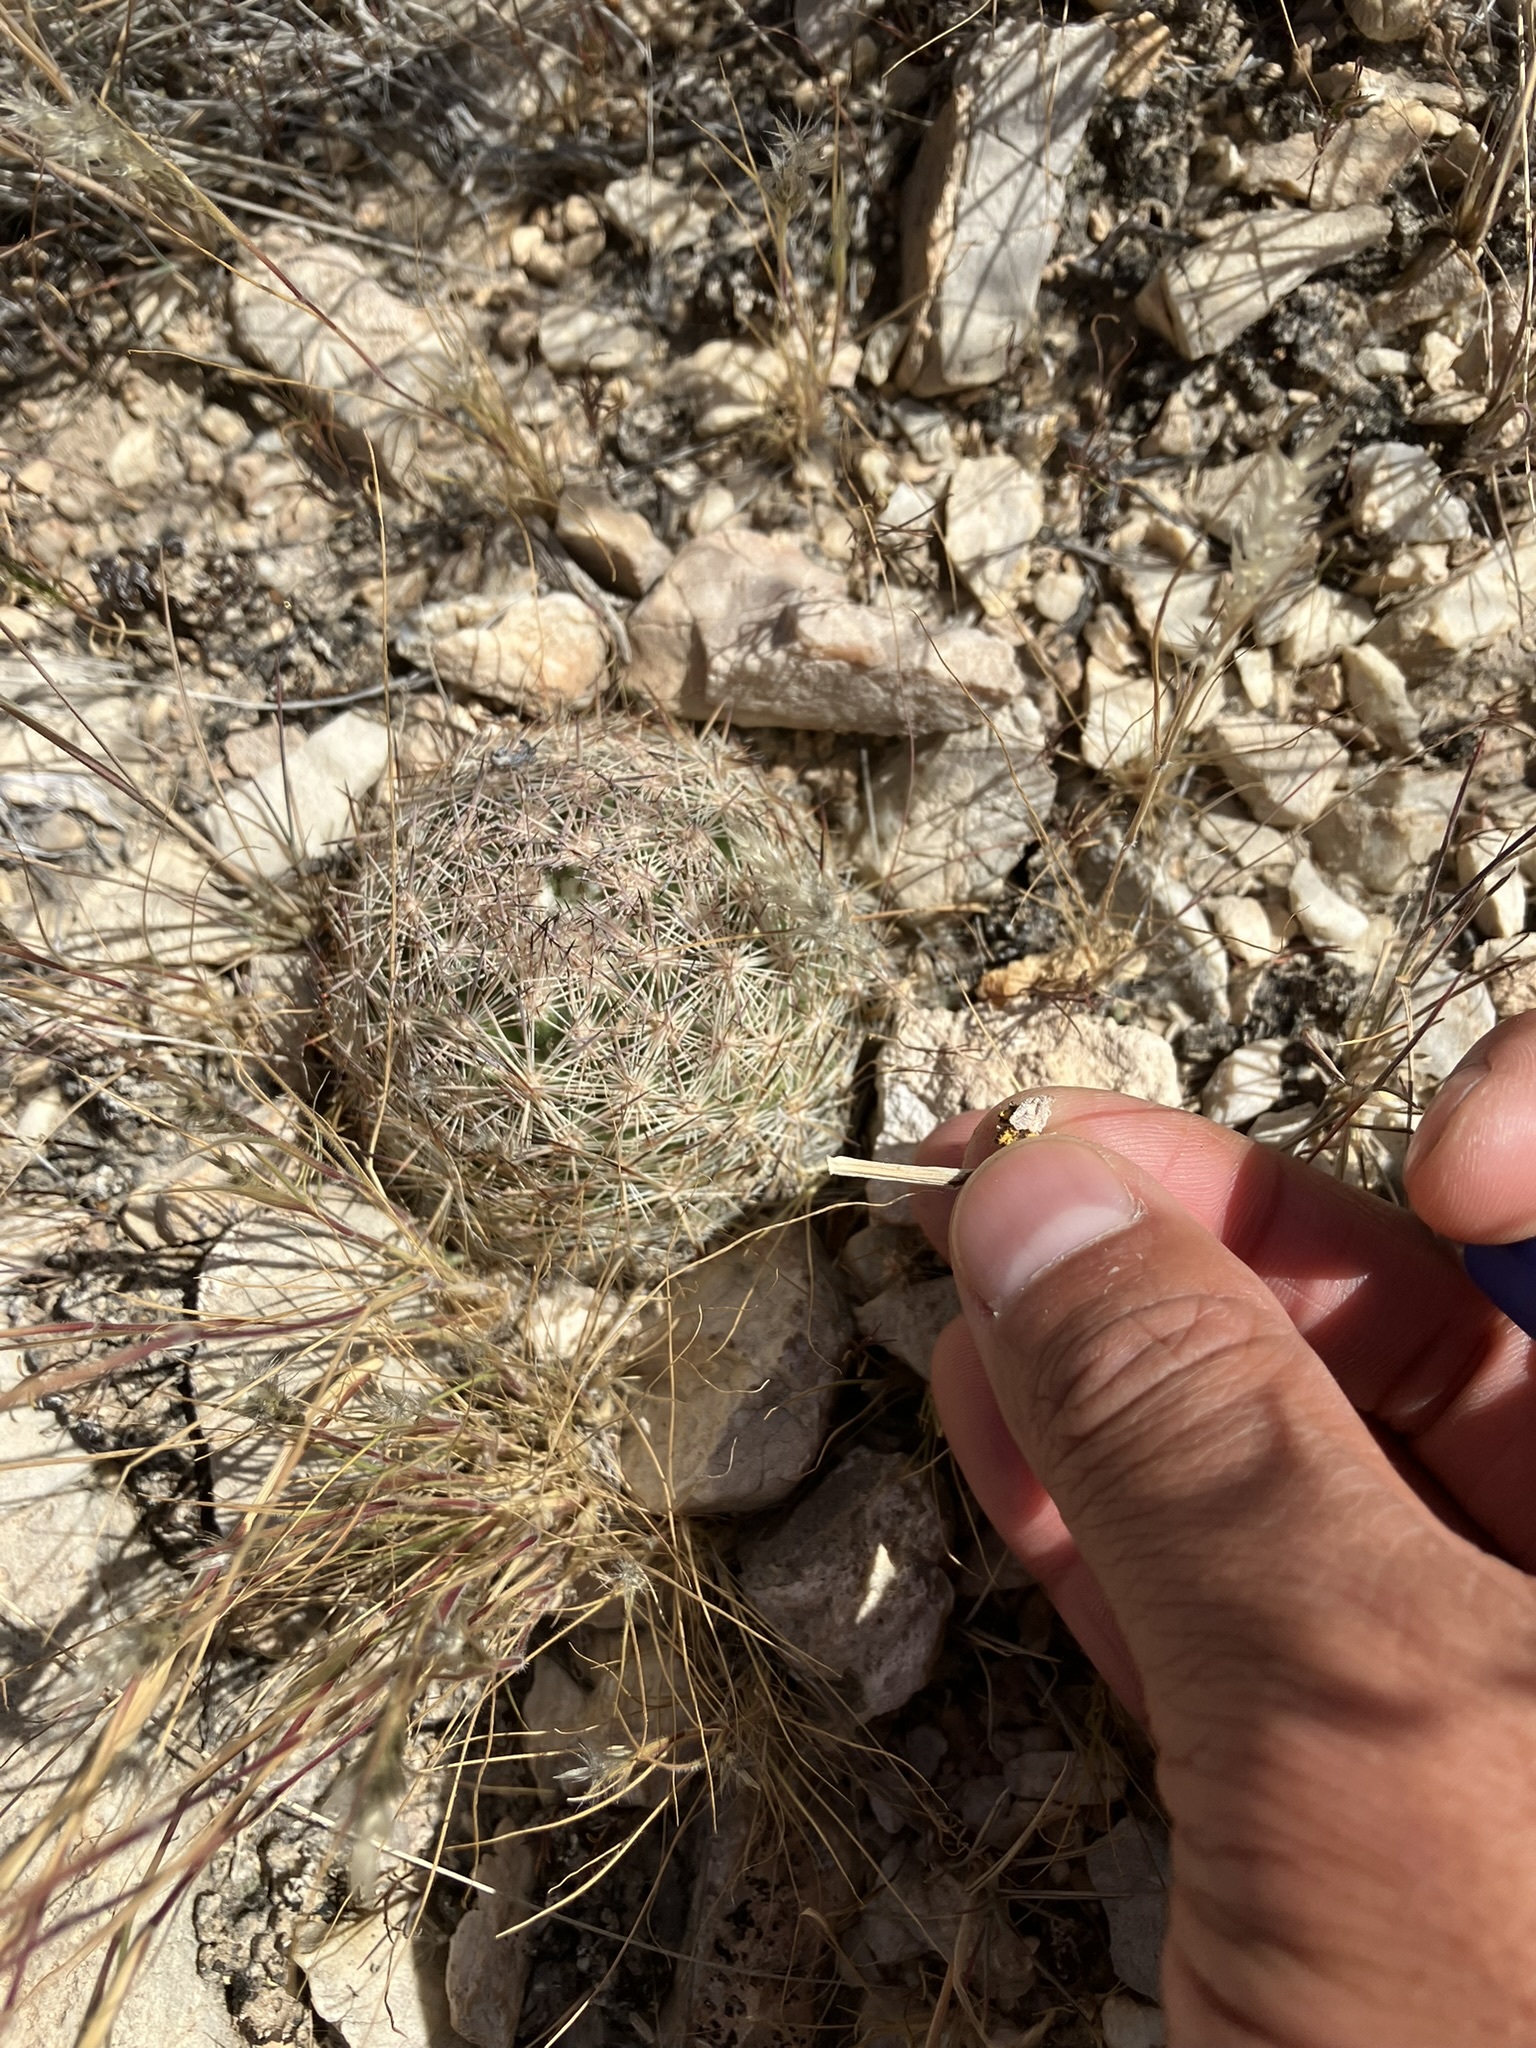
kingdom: Plantae
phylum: Tracheophyta
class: Magnoliopsida
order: Caryophyllales
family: Cactaceae
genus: Pelecyphora
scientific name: Pelecyphora dasyacantha
